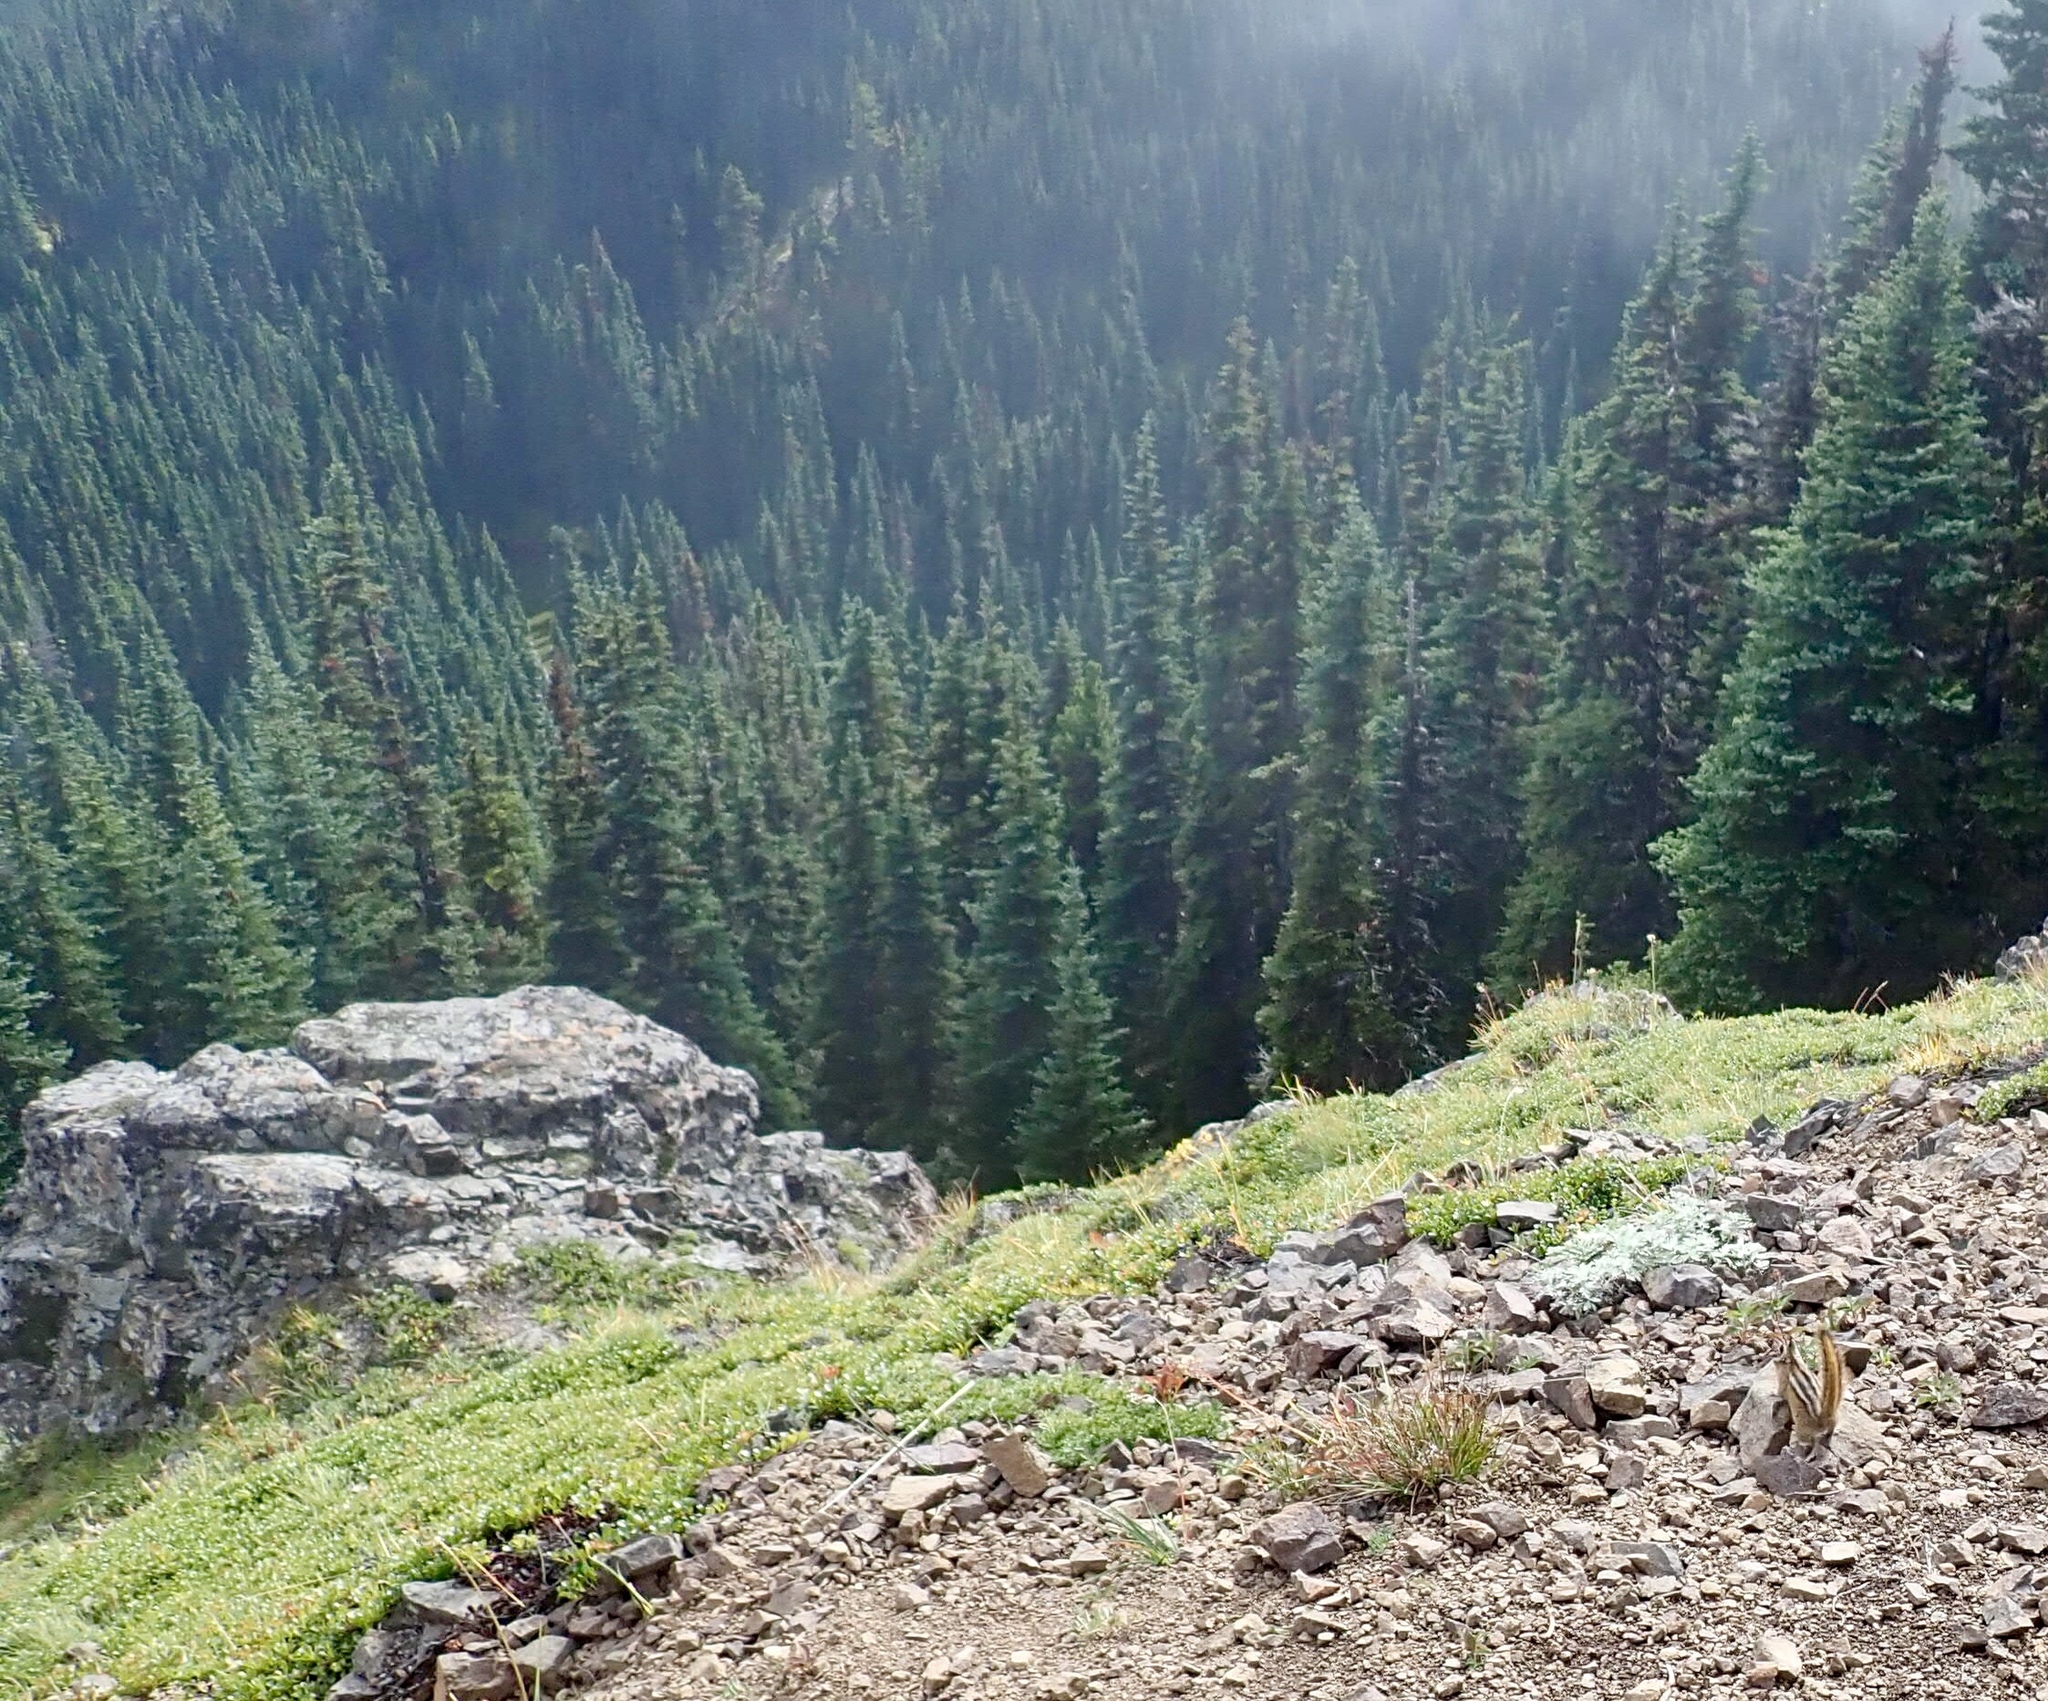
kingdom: Animalia
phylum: Chordata
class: Mammalia
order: Rodentia
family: Sciuridae
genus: Tamias
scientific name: Tamias amoenus
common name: Yellow-pine chipmunk
